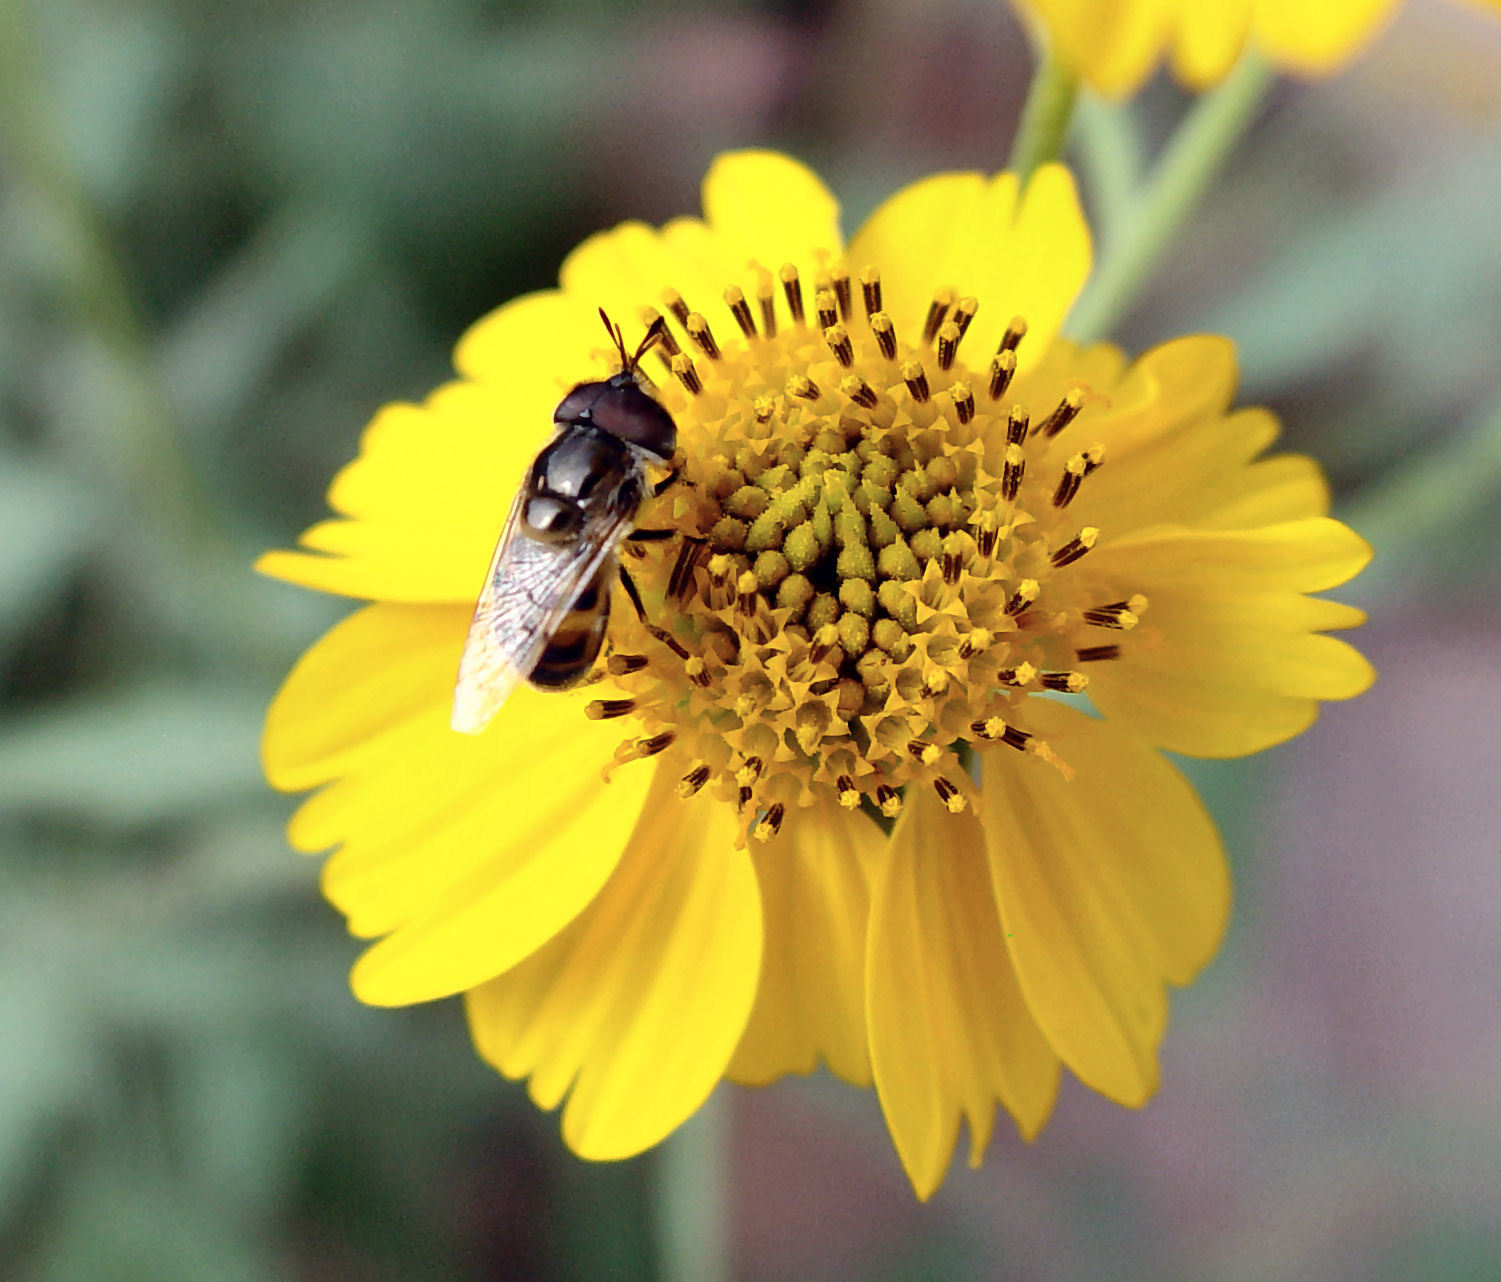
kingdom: Animalia
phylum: Arthropoda
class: Insecta
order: Diptera
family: Syrphidae
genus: Copestylum
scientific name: Copestylum
